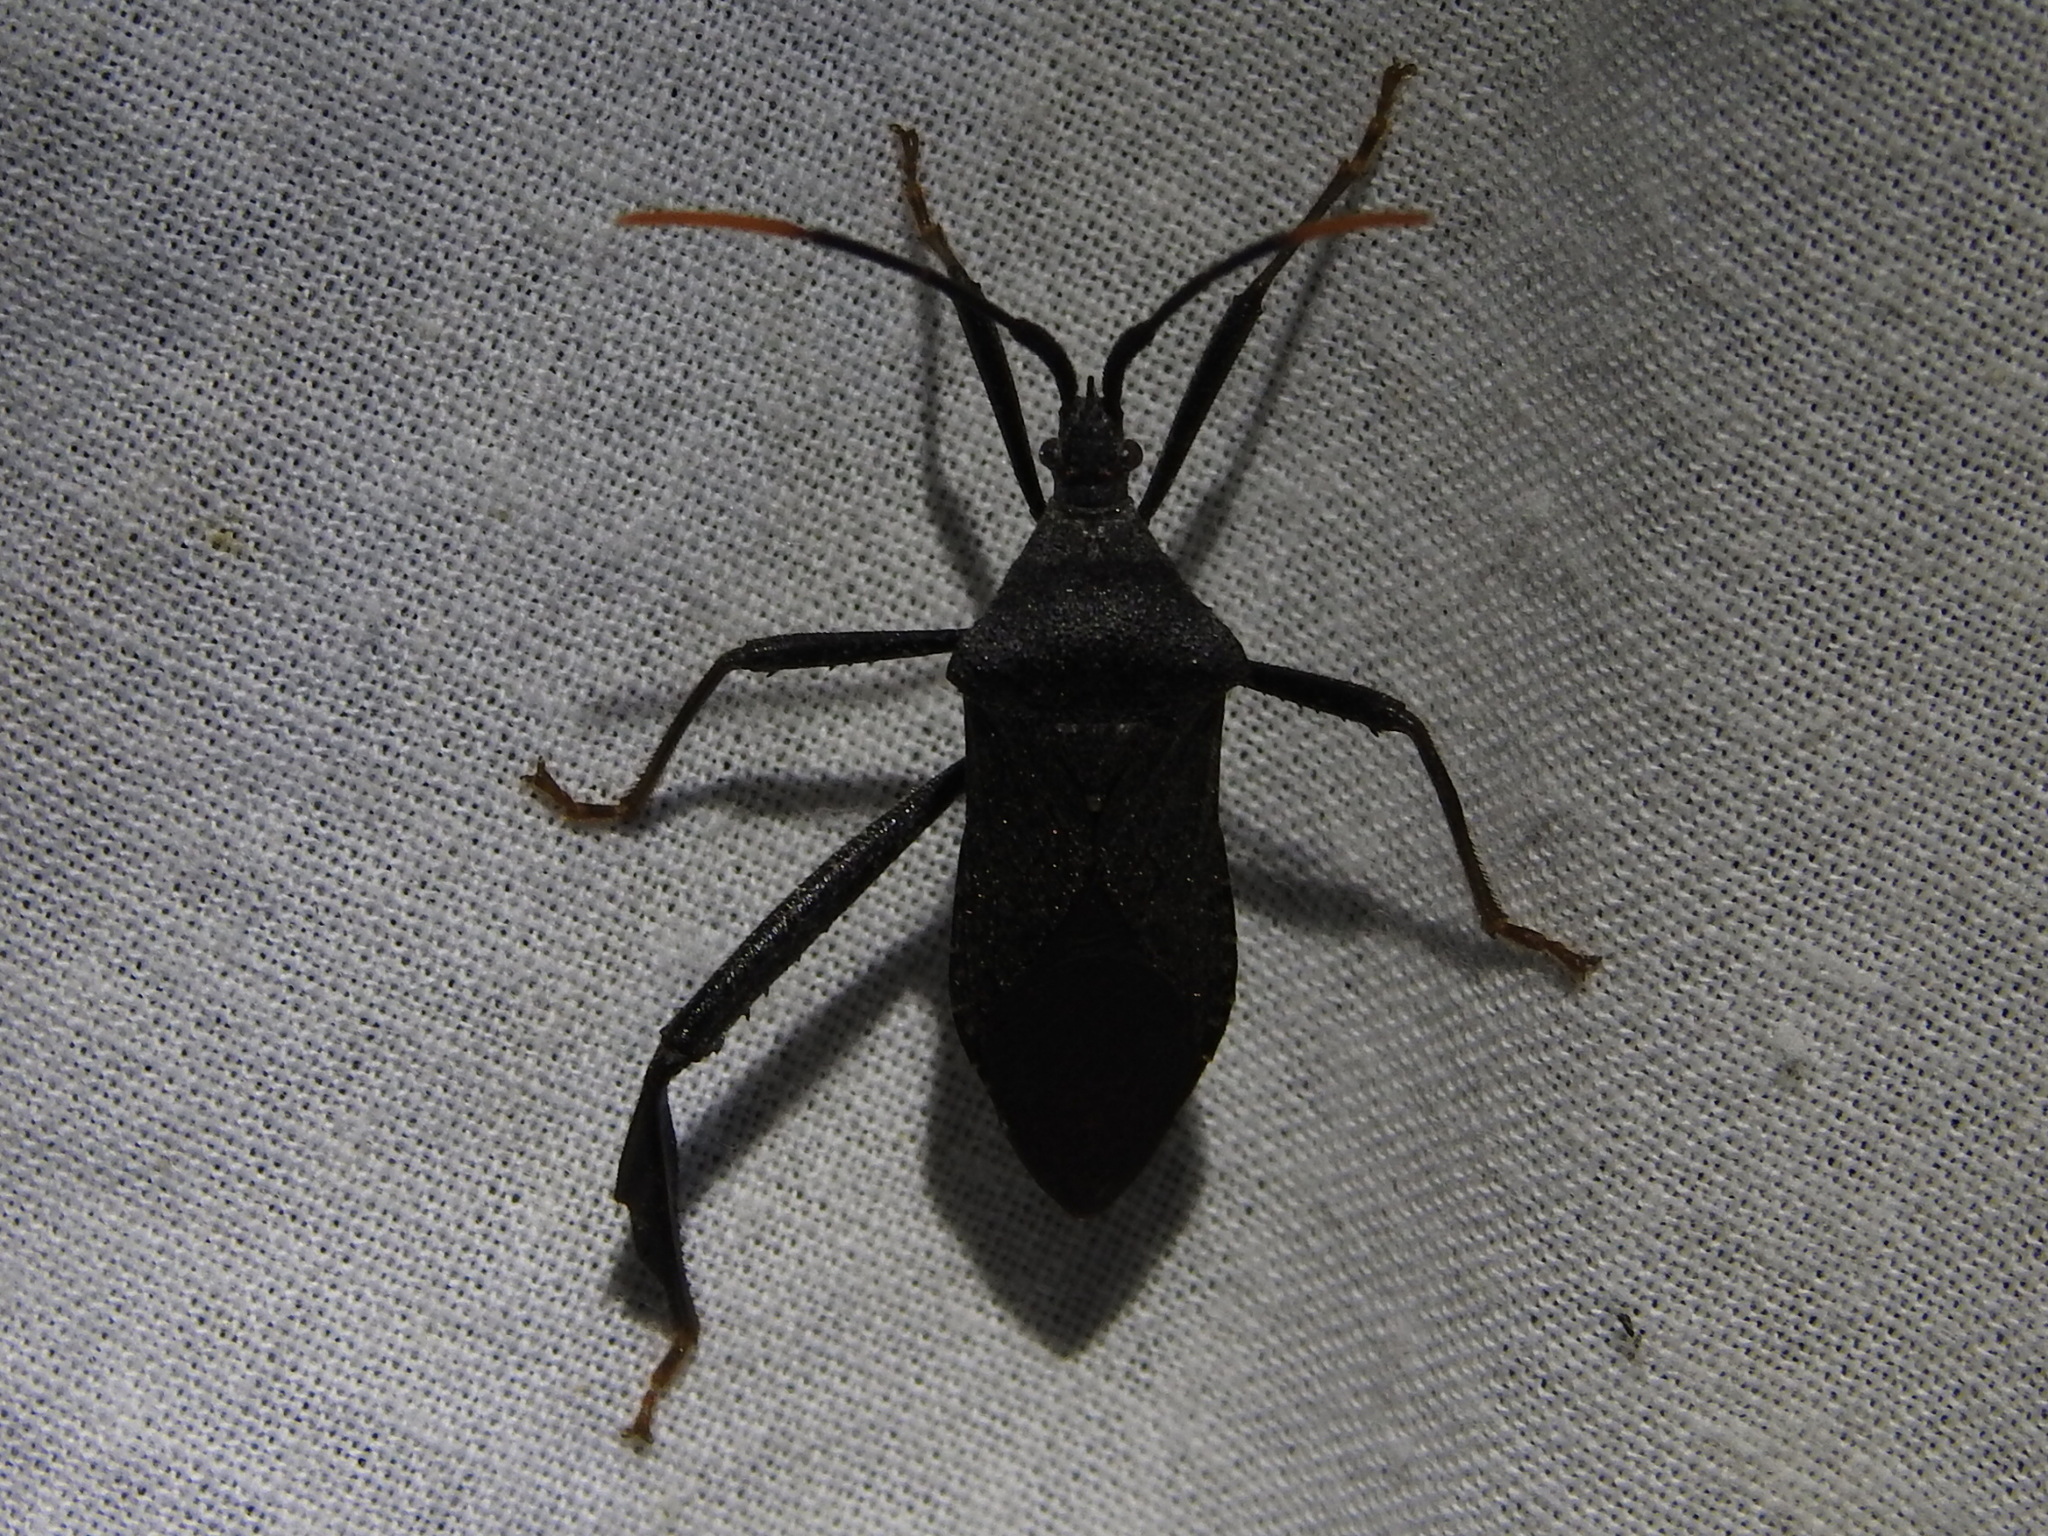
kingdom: Animalia
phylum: Arthropoda
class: Insecta
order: Hemiptera
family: Coreidae
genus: Acanthocephala
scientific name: Acanthocephala terminalis
